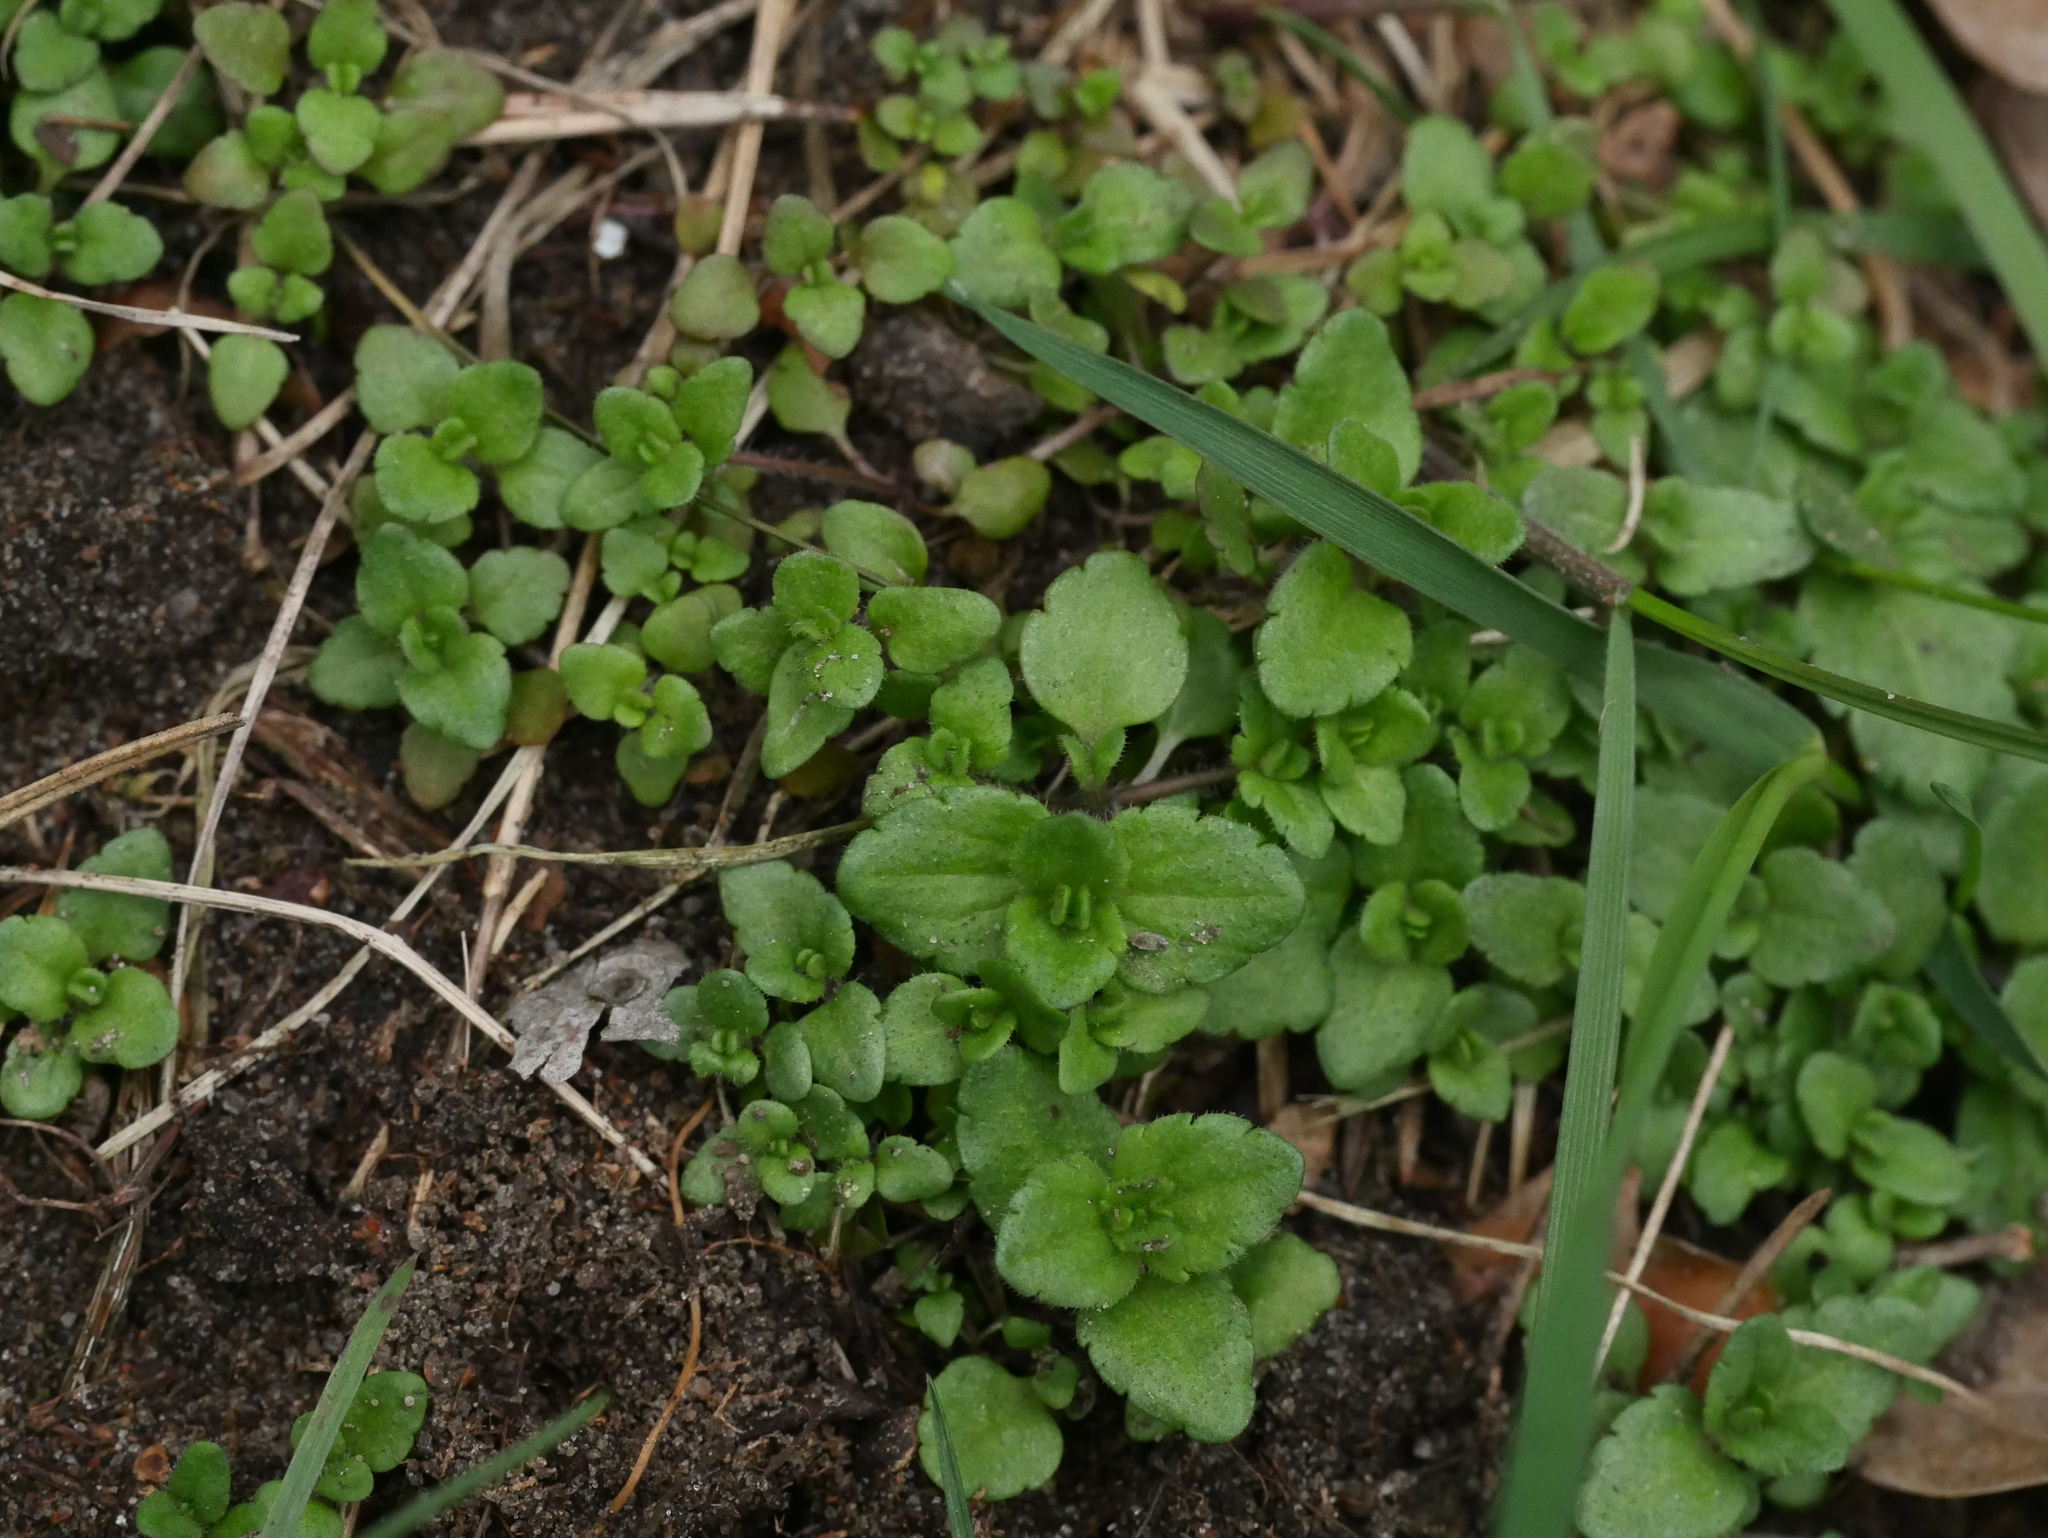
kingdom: Plantae
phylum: Tracheophyta
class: Magnoliopsida
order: Lamiales
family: Plantaginaceae
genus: Veronica
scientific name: Veronica arvensis
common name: Corn speedwell
